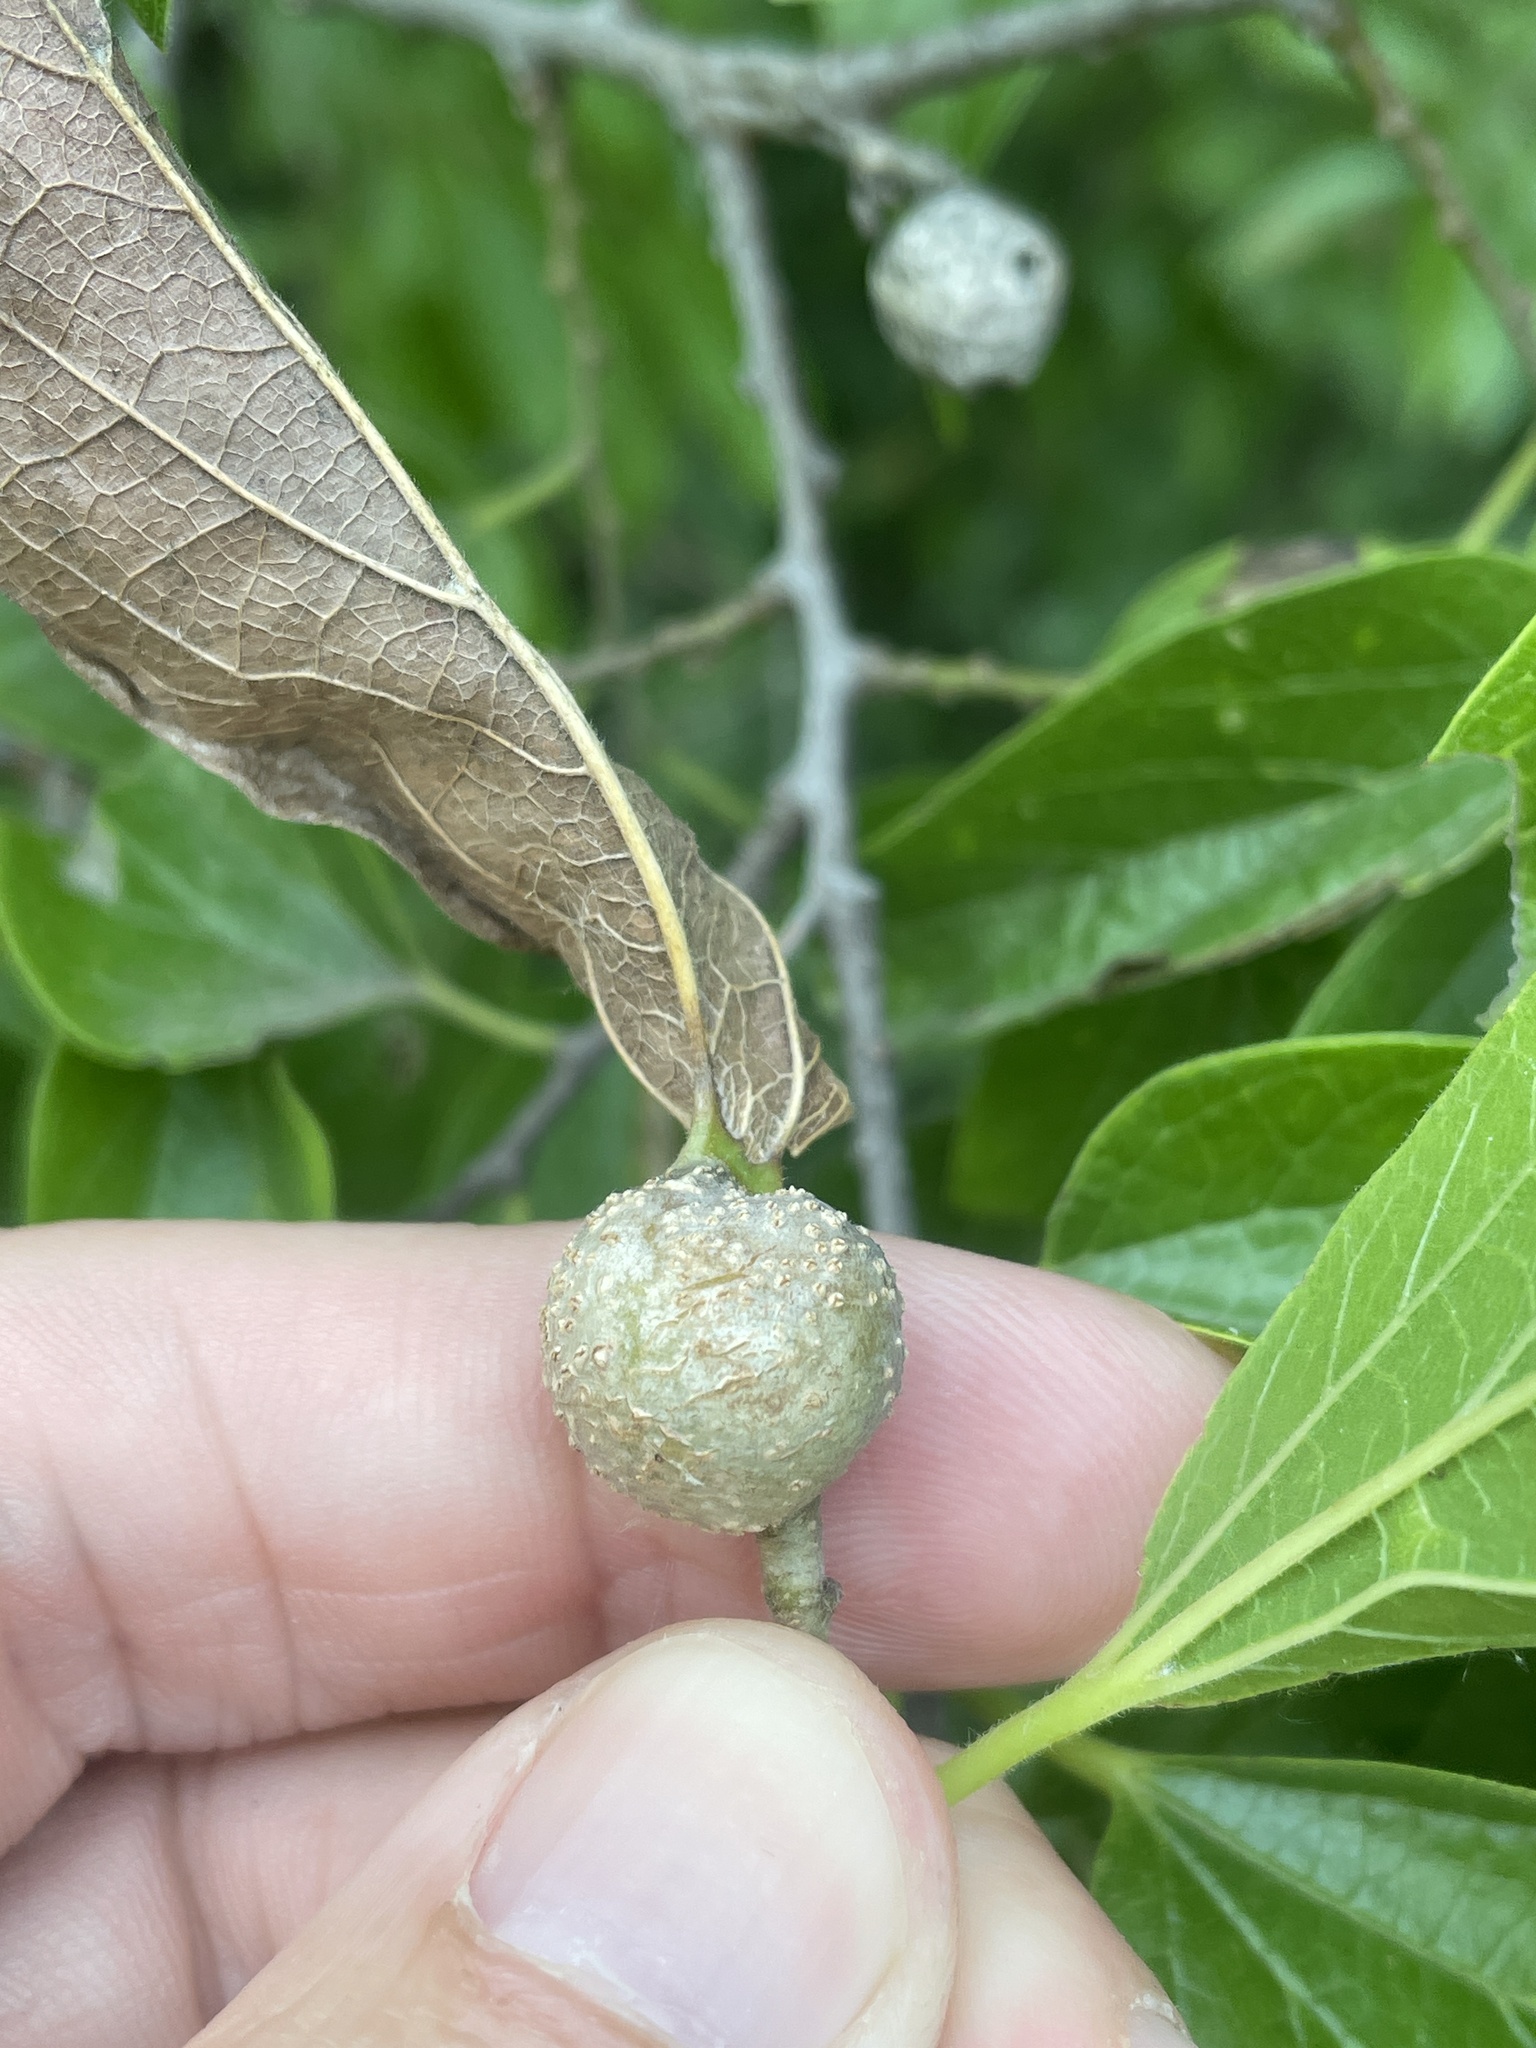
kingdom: Animalia
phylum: Arthropoda
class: Insecta
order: Hemiptera
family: Aphalaridae
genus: Pachypsylla
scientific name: Pachypsylla venusta
